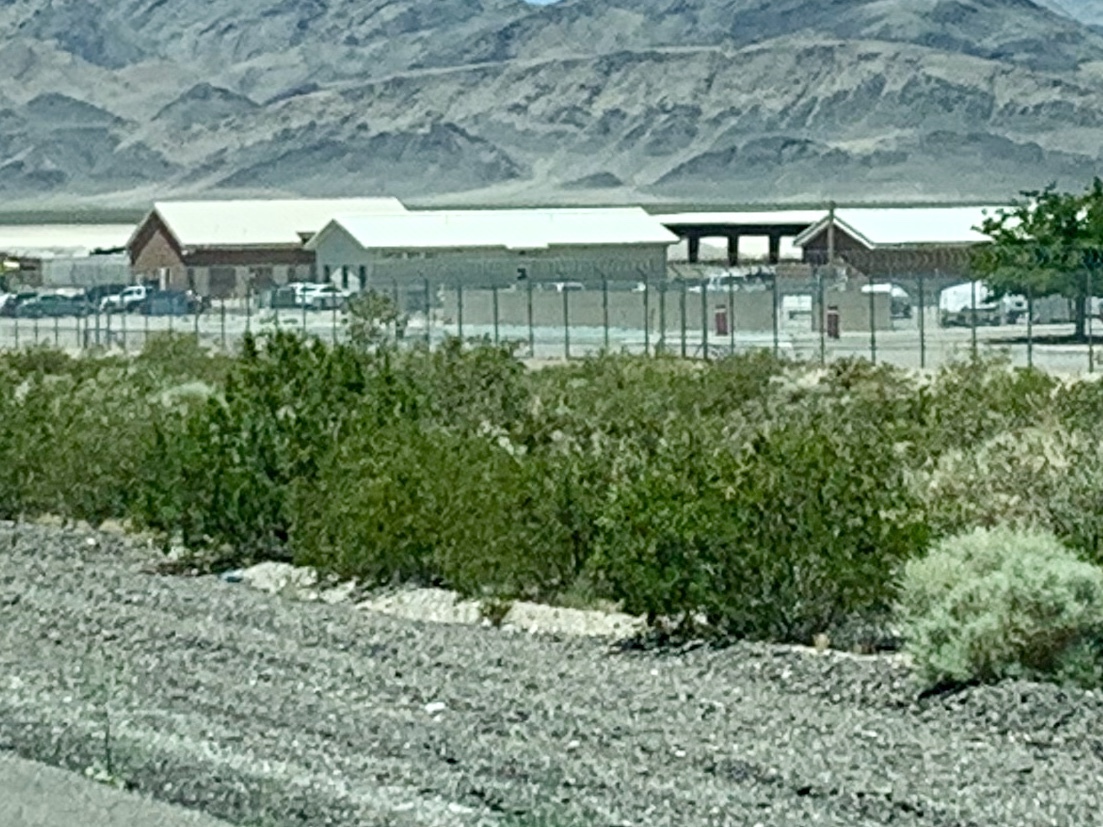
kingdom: Plantae
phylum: Tracheophyta
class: Magnoliopsida
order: Zygophyllales
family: Zygophyllaceae
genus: Larrea
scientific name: Larrea tridentata
